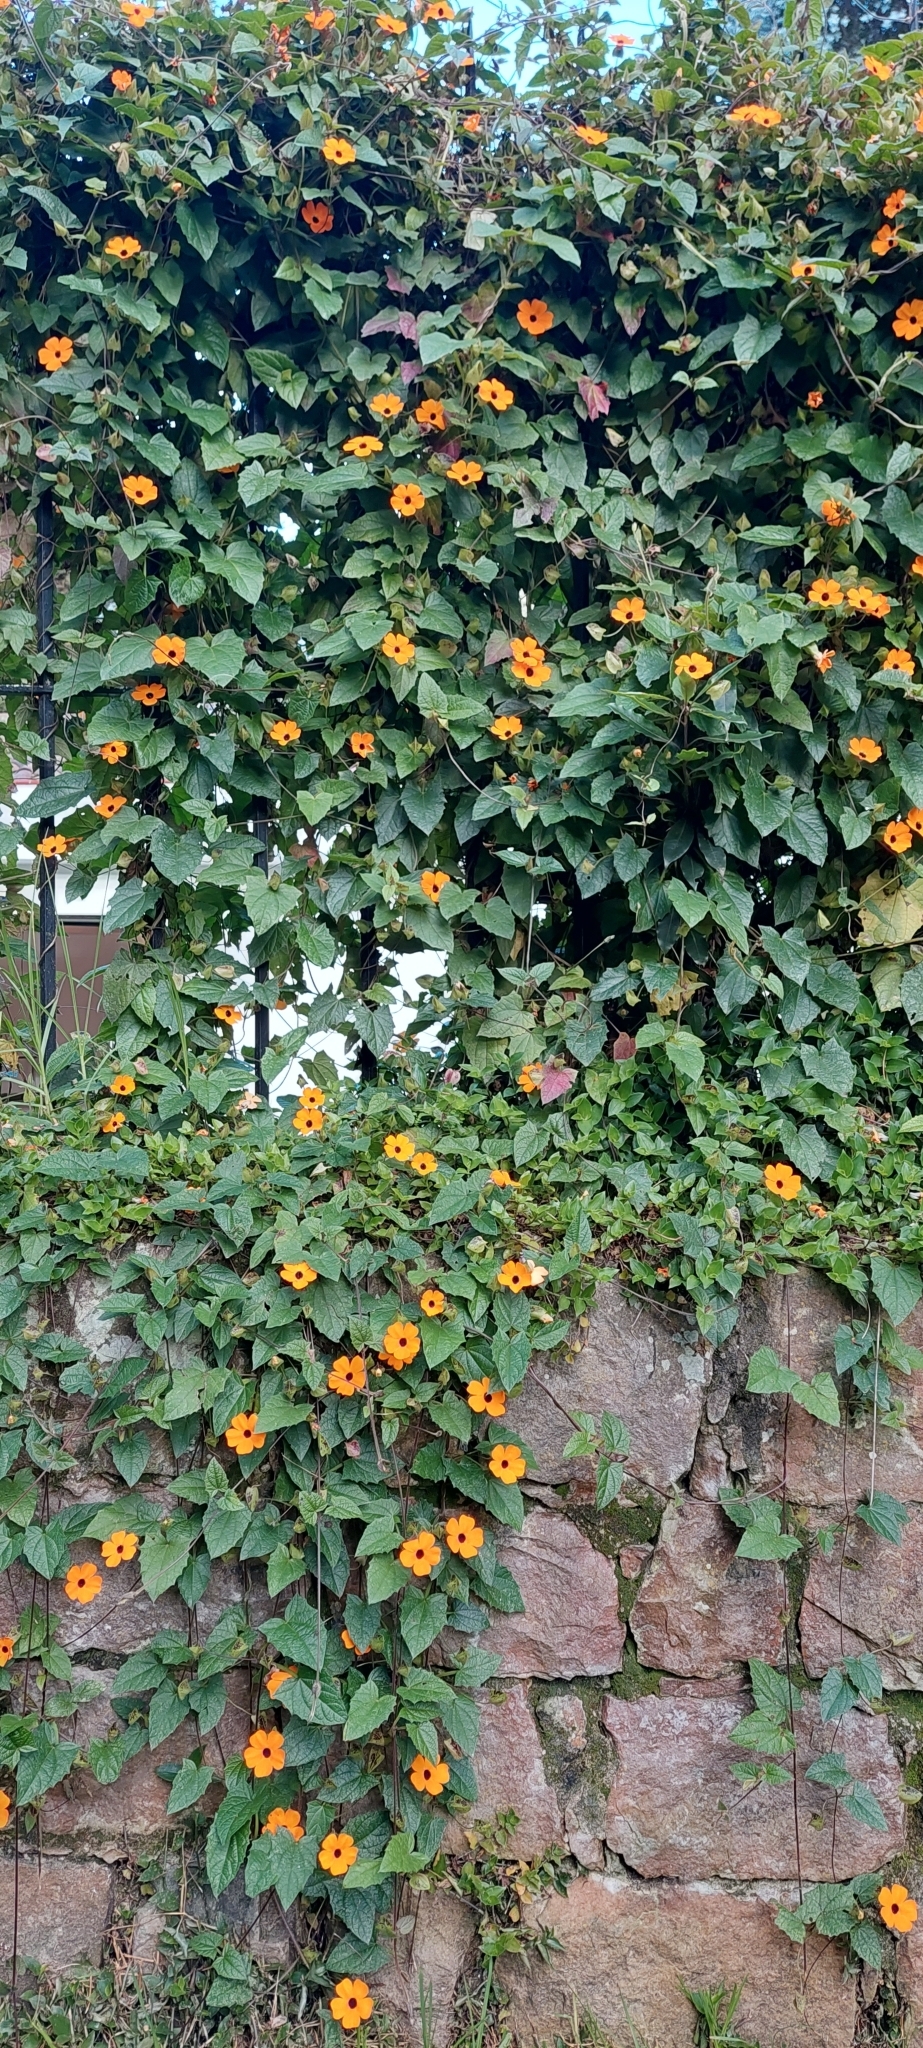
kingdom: Plantae
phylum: Tracheophyta
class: Magnoliopsida
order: Lamiales
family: Acanthaceae
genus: Thunbergia
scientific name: Thunbergia alata
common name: Blackeyed susan vine
